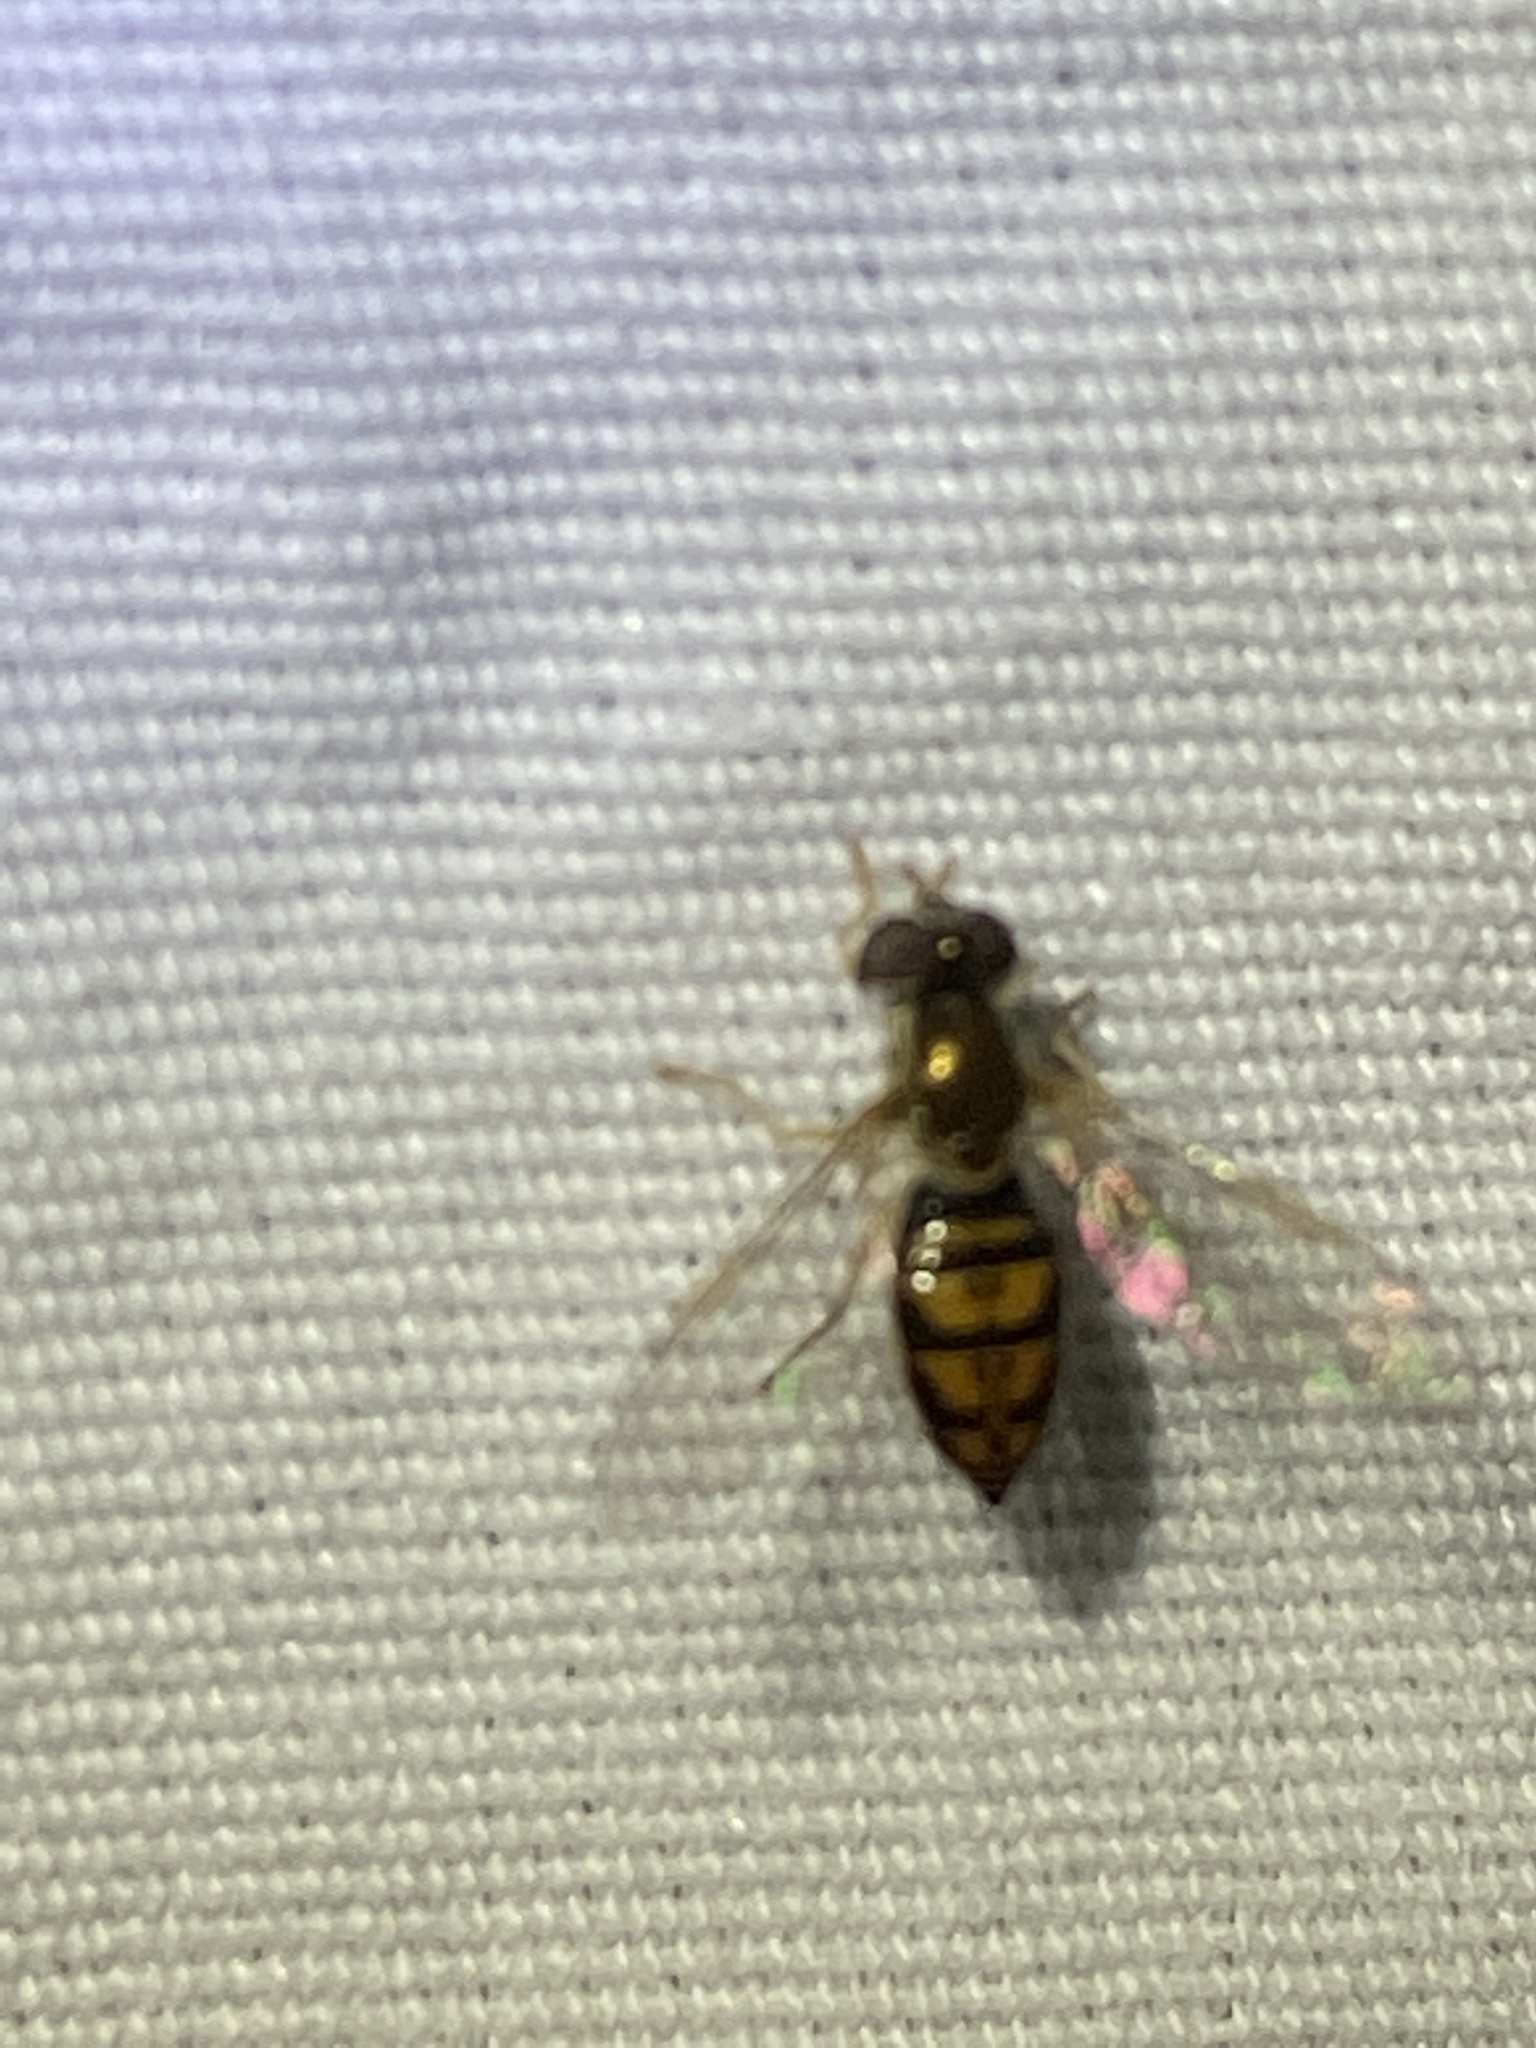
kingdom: Animalia
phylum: Arthropoda
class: Insecta
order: Diptera
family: Syrphidae
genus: Toxomerus
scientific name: Toxomerus marginatus
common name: Syrphid fly
